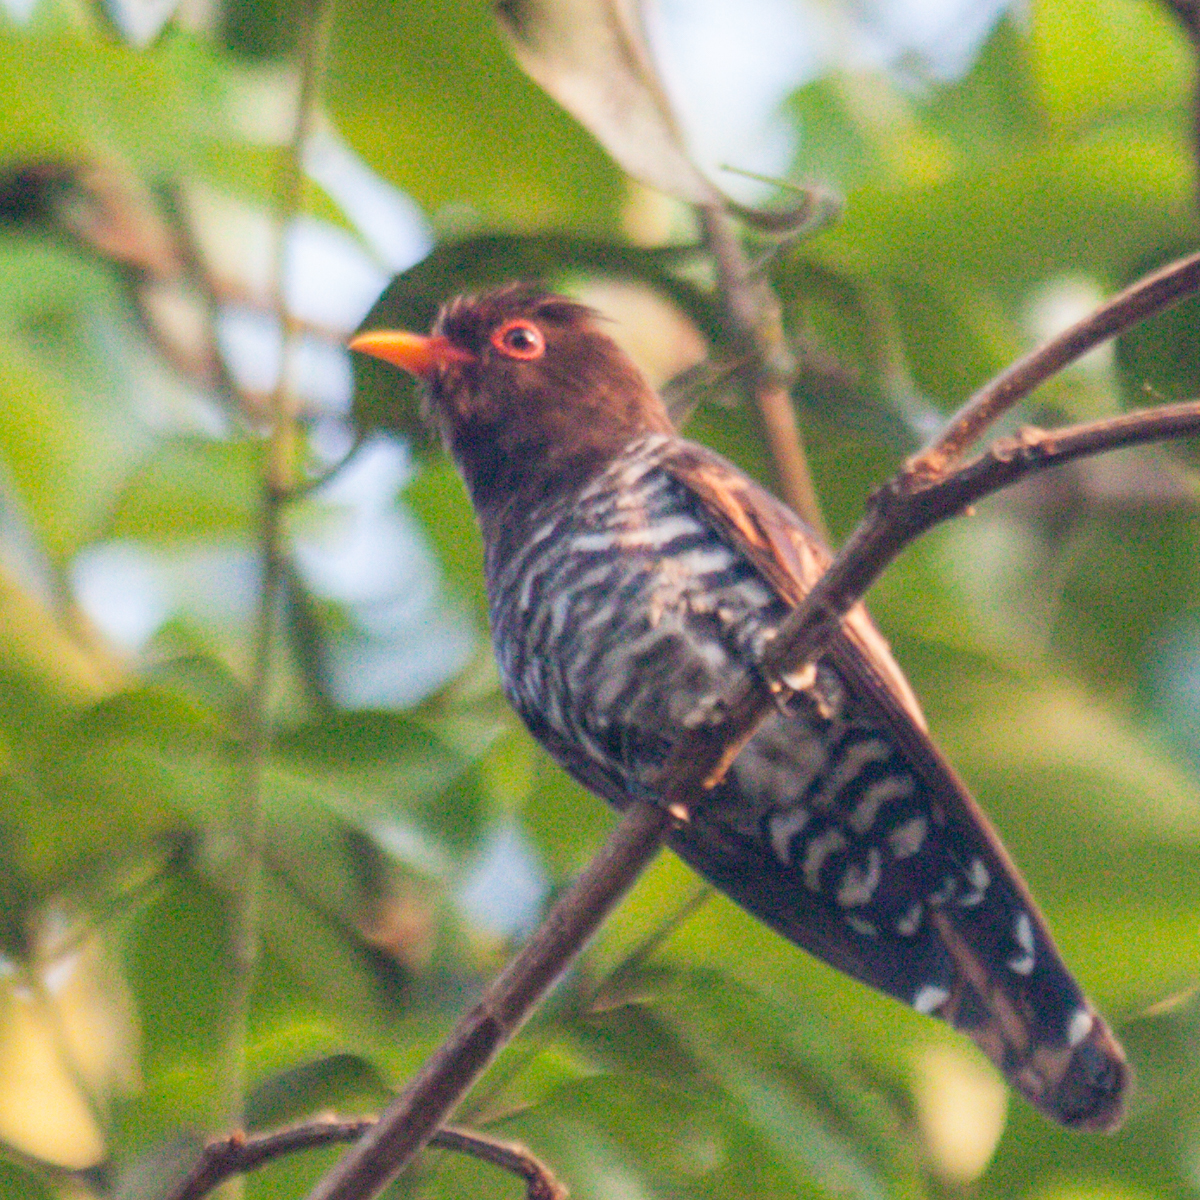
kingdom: Animalia
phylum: Chordata
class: Aves
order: Cuculiformes
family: Cuculidae
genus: Chrysococcyx
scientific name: Chrysococcyx xanthorhynchus
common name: Violet cuckoo
